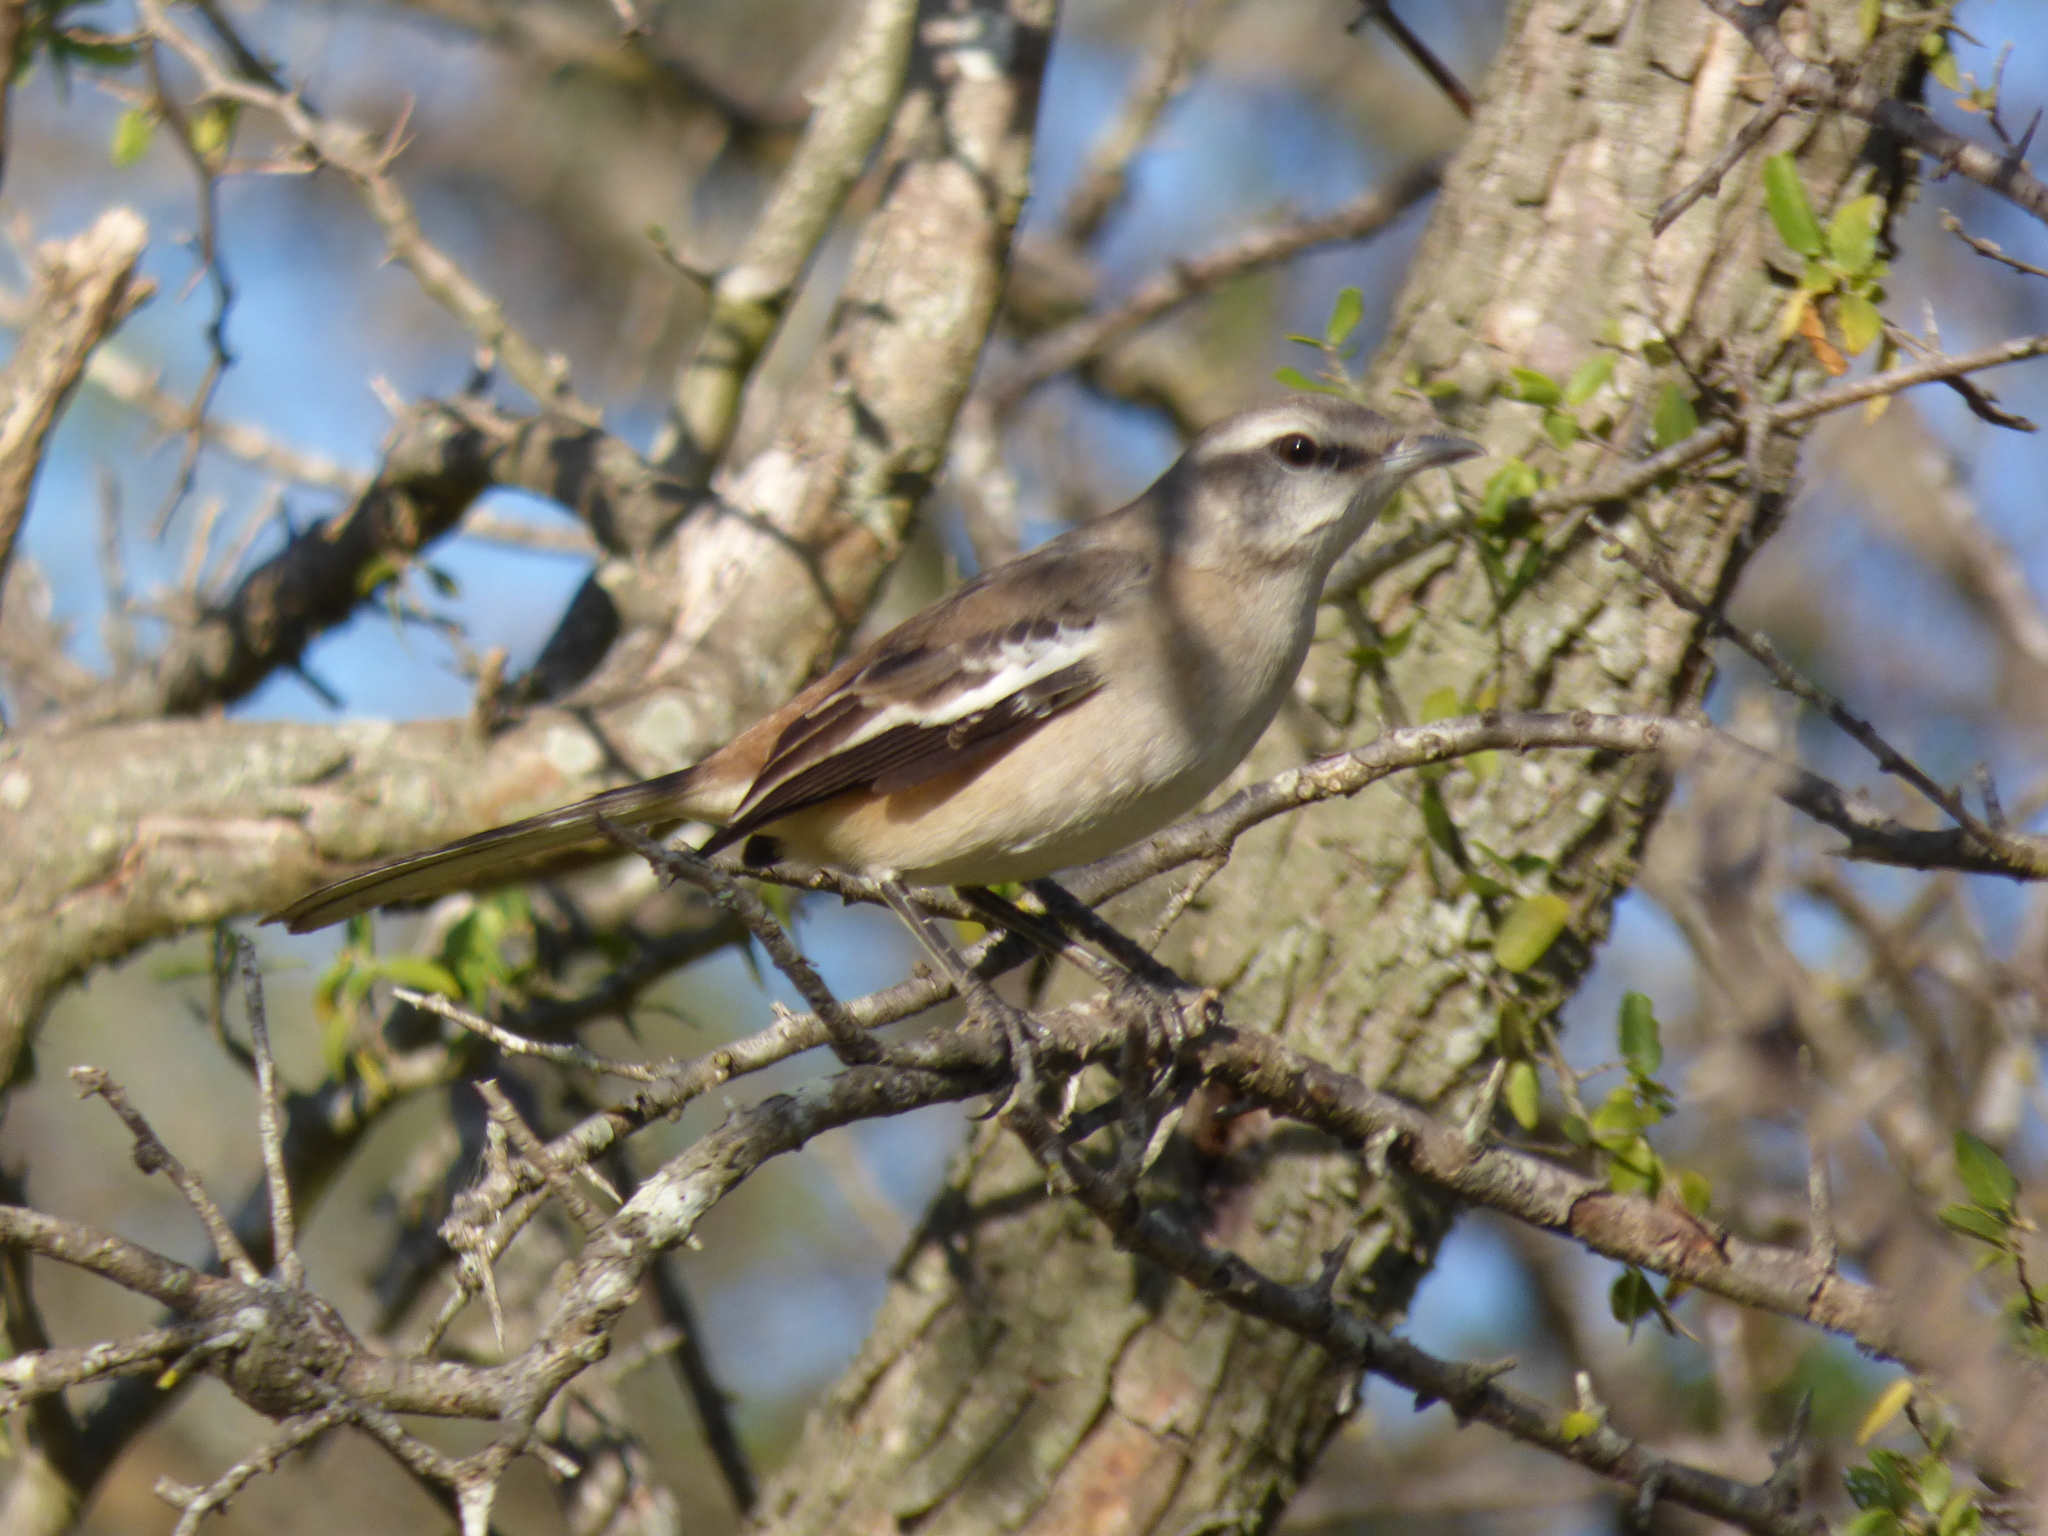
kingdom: Animalia
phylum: Chordata
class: Aves
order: Passeriformes
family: Mimidae
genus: Mimus
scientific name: Mimus triurus
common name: White-banded mockingbird
